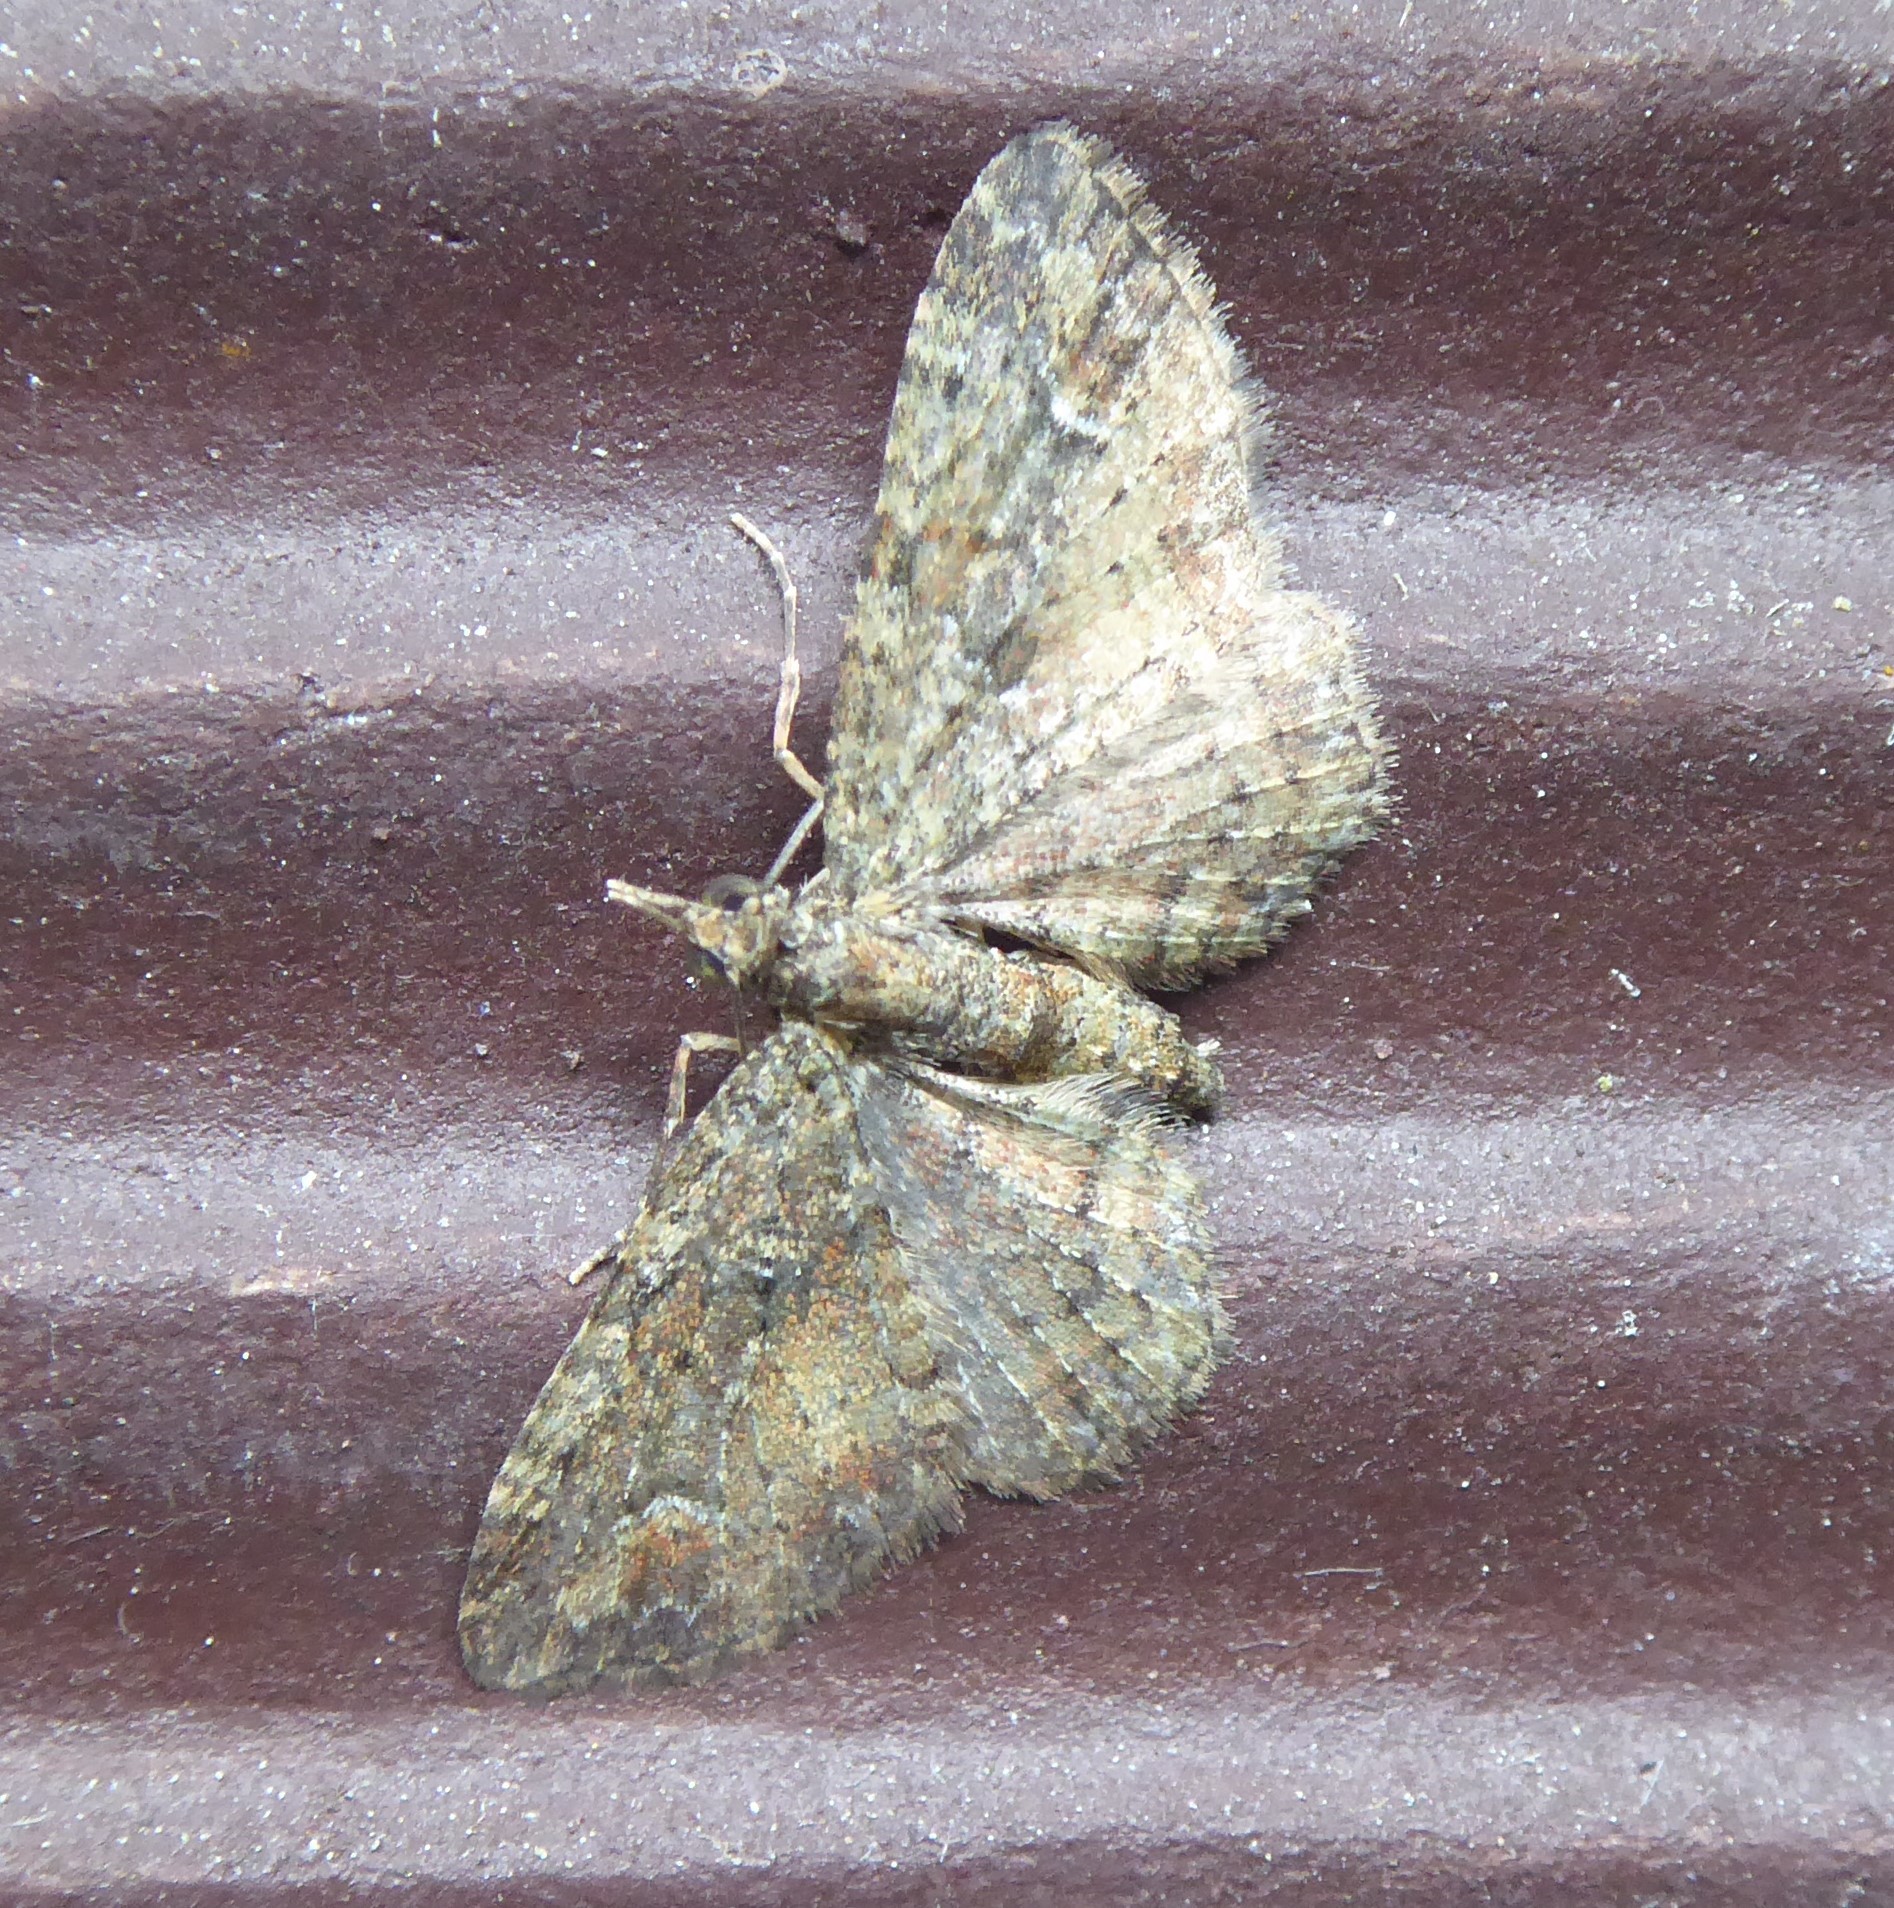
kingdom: Animalia
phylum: Arthropoda
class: Insecta
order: Lepidoptera
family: Geometridae
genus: Pasiphilodes
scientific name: Pasiphilodes testulata
